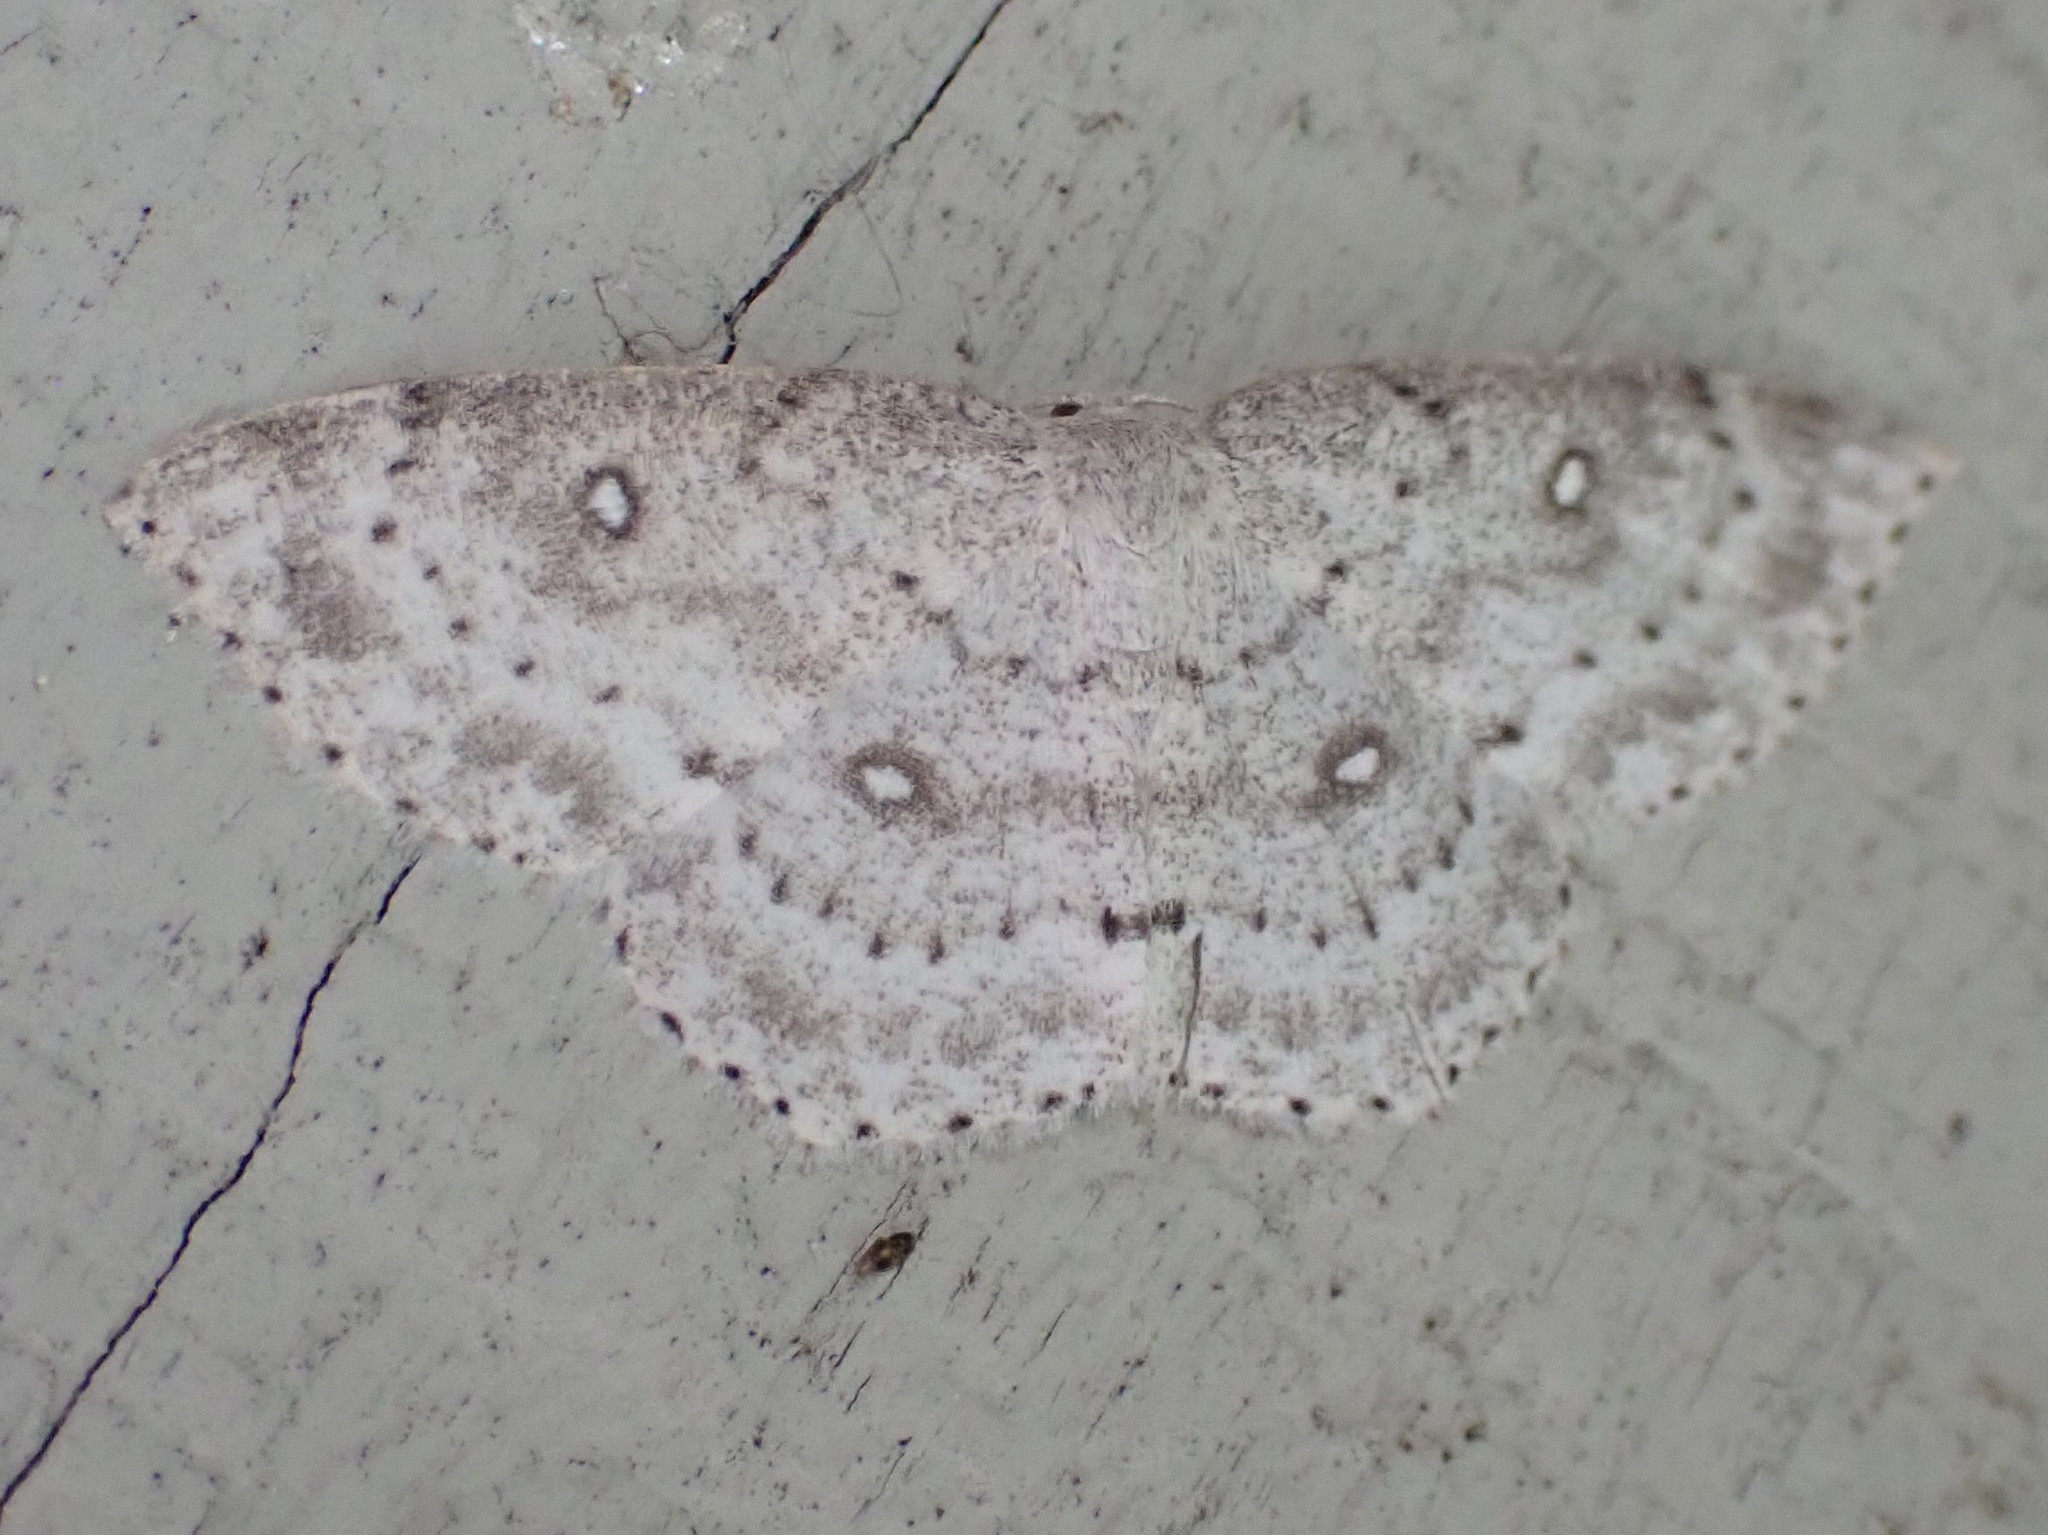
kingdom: Animalia
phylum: Arthropoda
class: Insecta
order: Lepidoptera
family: Geometridae
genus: Cyclophora
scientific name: Cyclophora pendulinaria
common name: Sweet fern geometer
